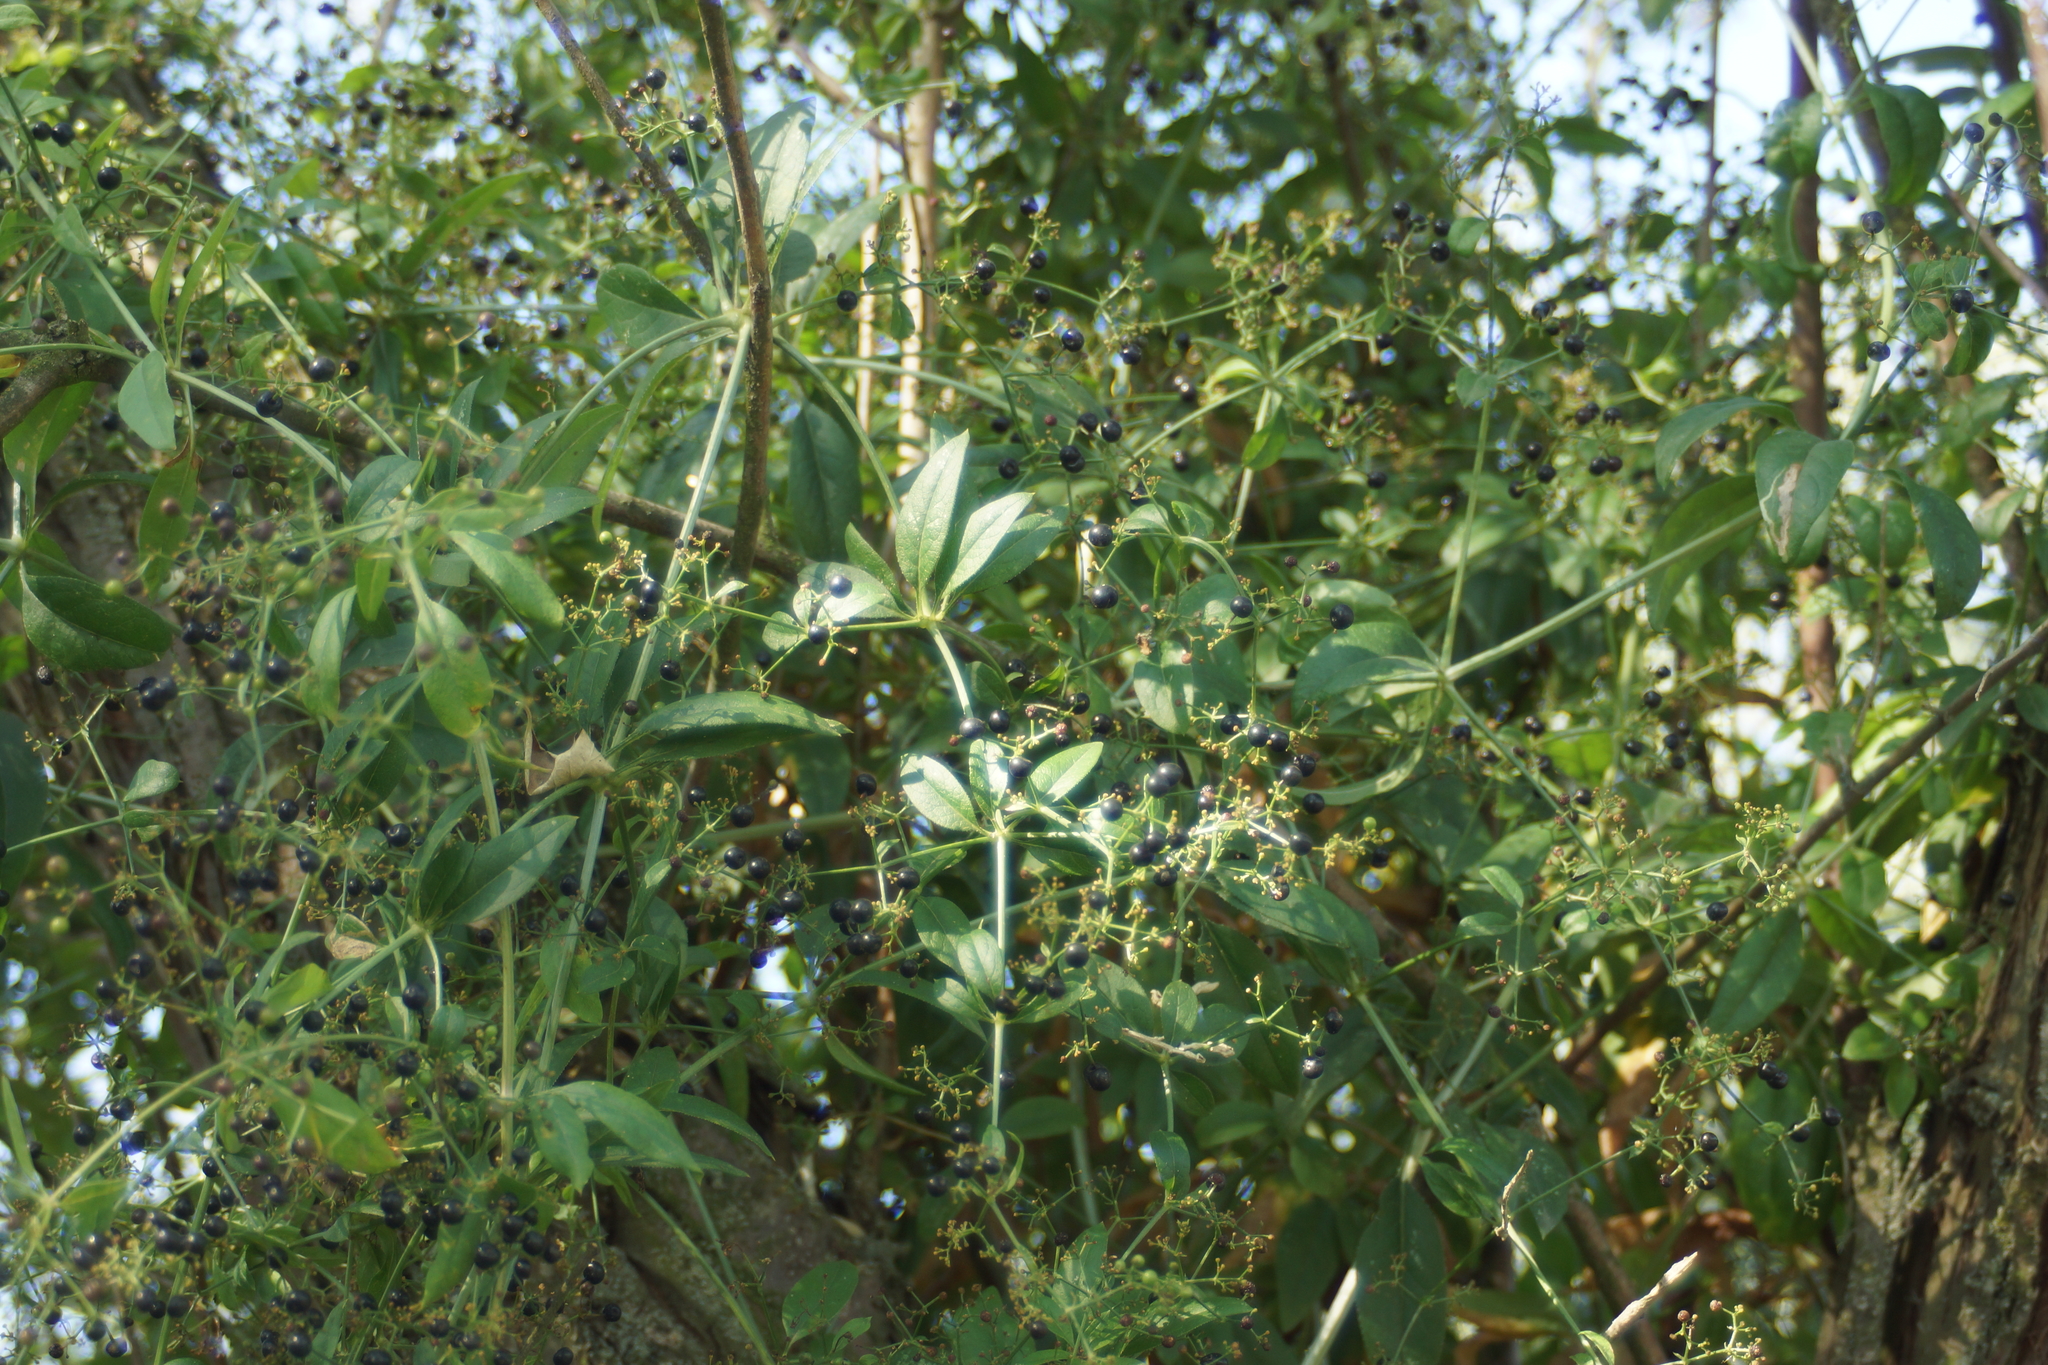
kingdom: Plantae
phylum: Tracheophyta
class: Magnoliopsida
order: Gentianales
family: Rubiaceae
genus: Rubia
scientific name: Rubia tinctorum
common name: Dyer's madder
